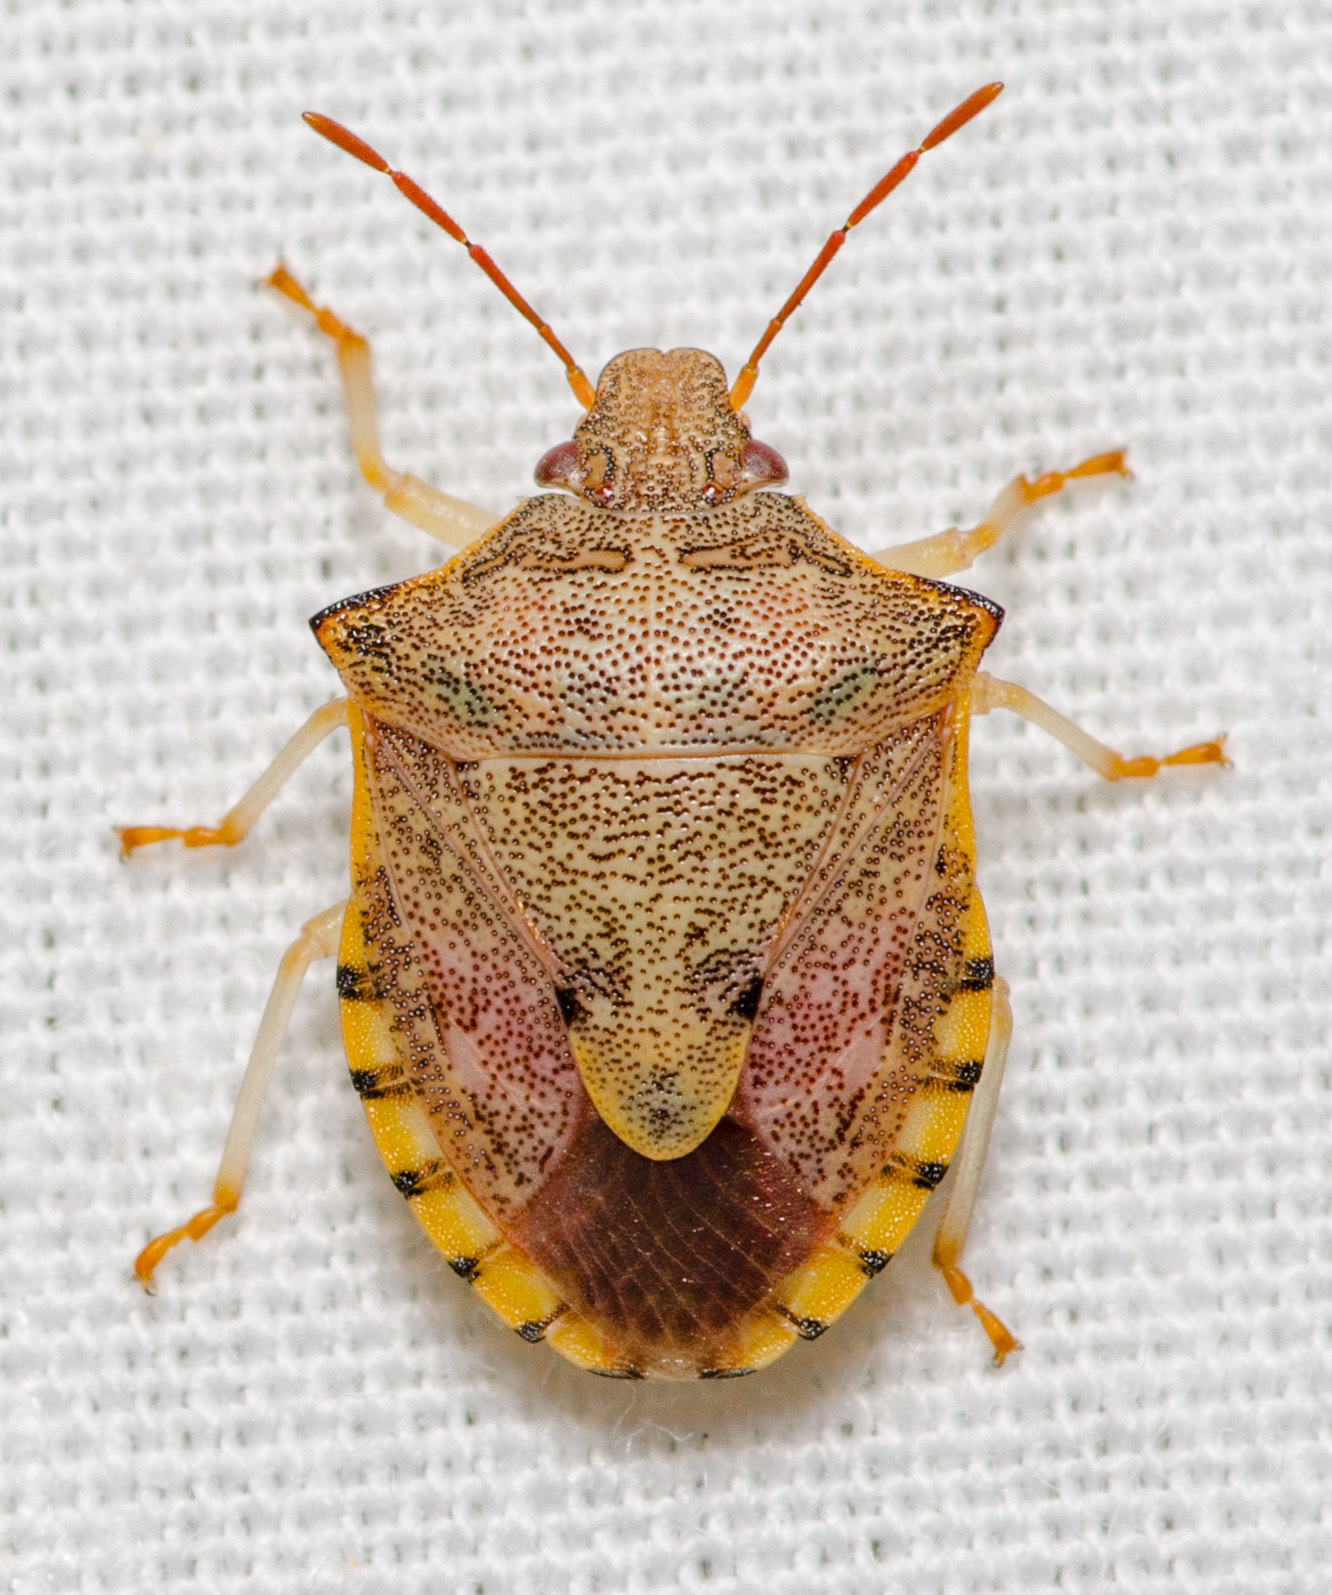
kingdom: Animalia
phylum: Arthropoda
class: Insecta
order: Hemiptera
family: Pentatomidae
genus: Dendrocoris
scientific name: Dendrocoris humeralis
